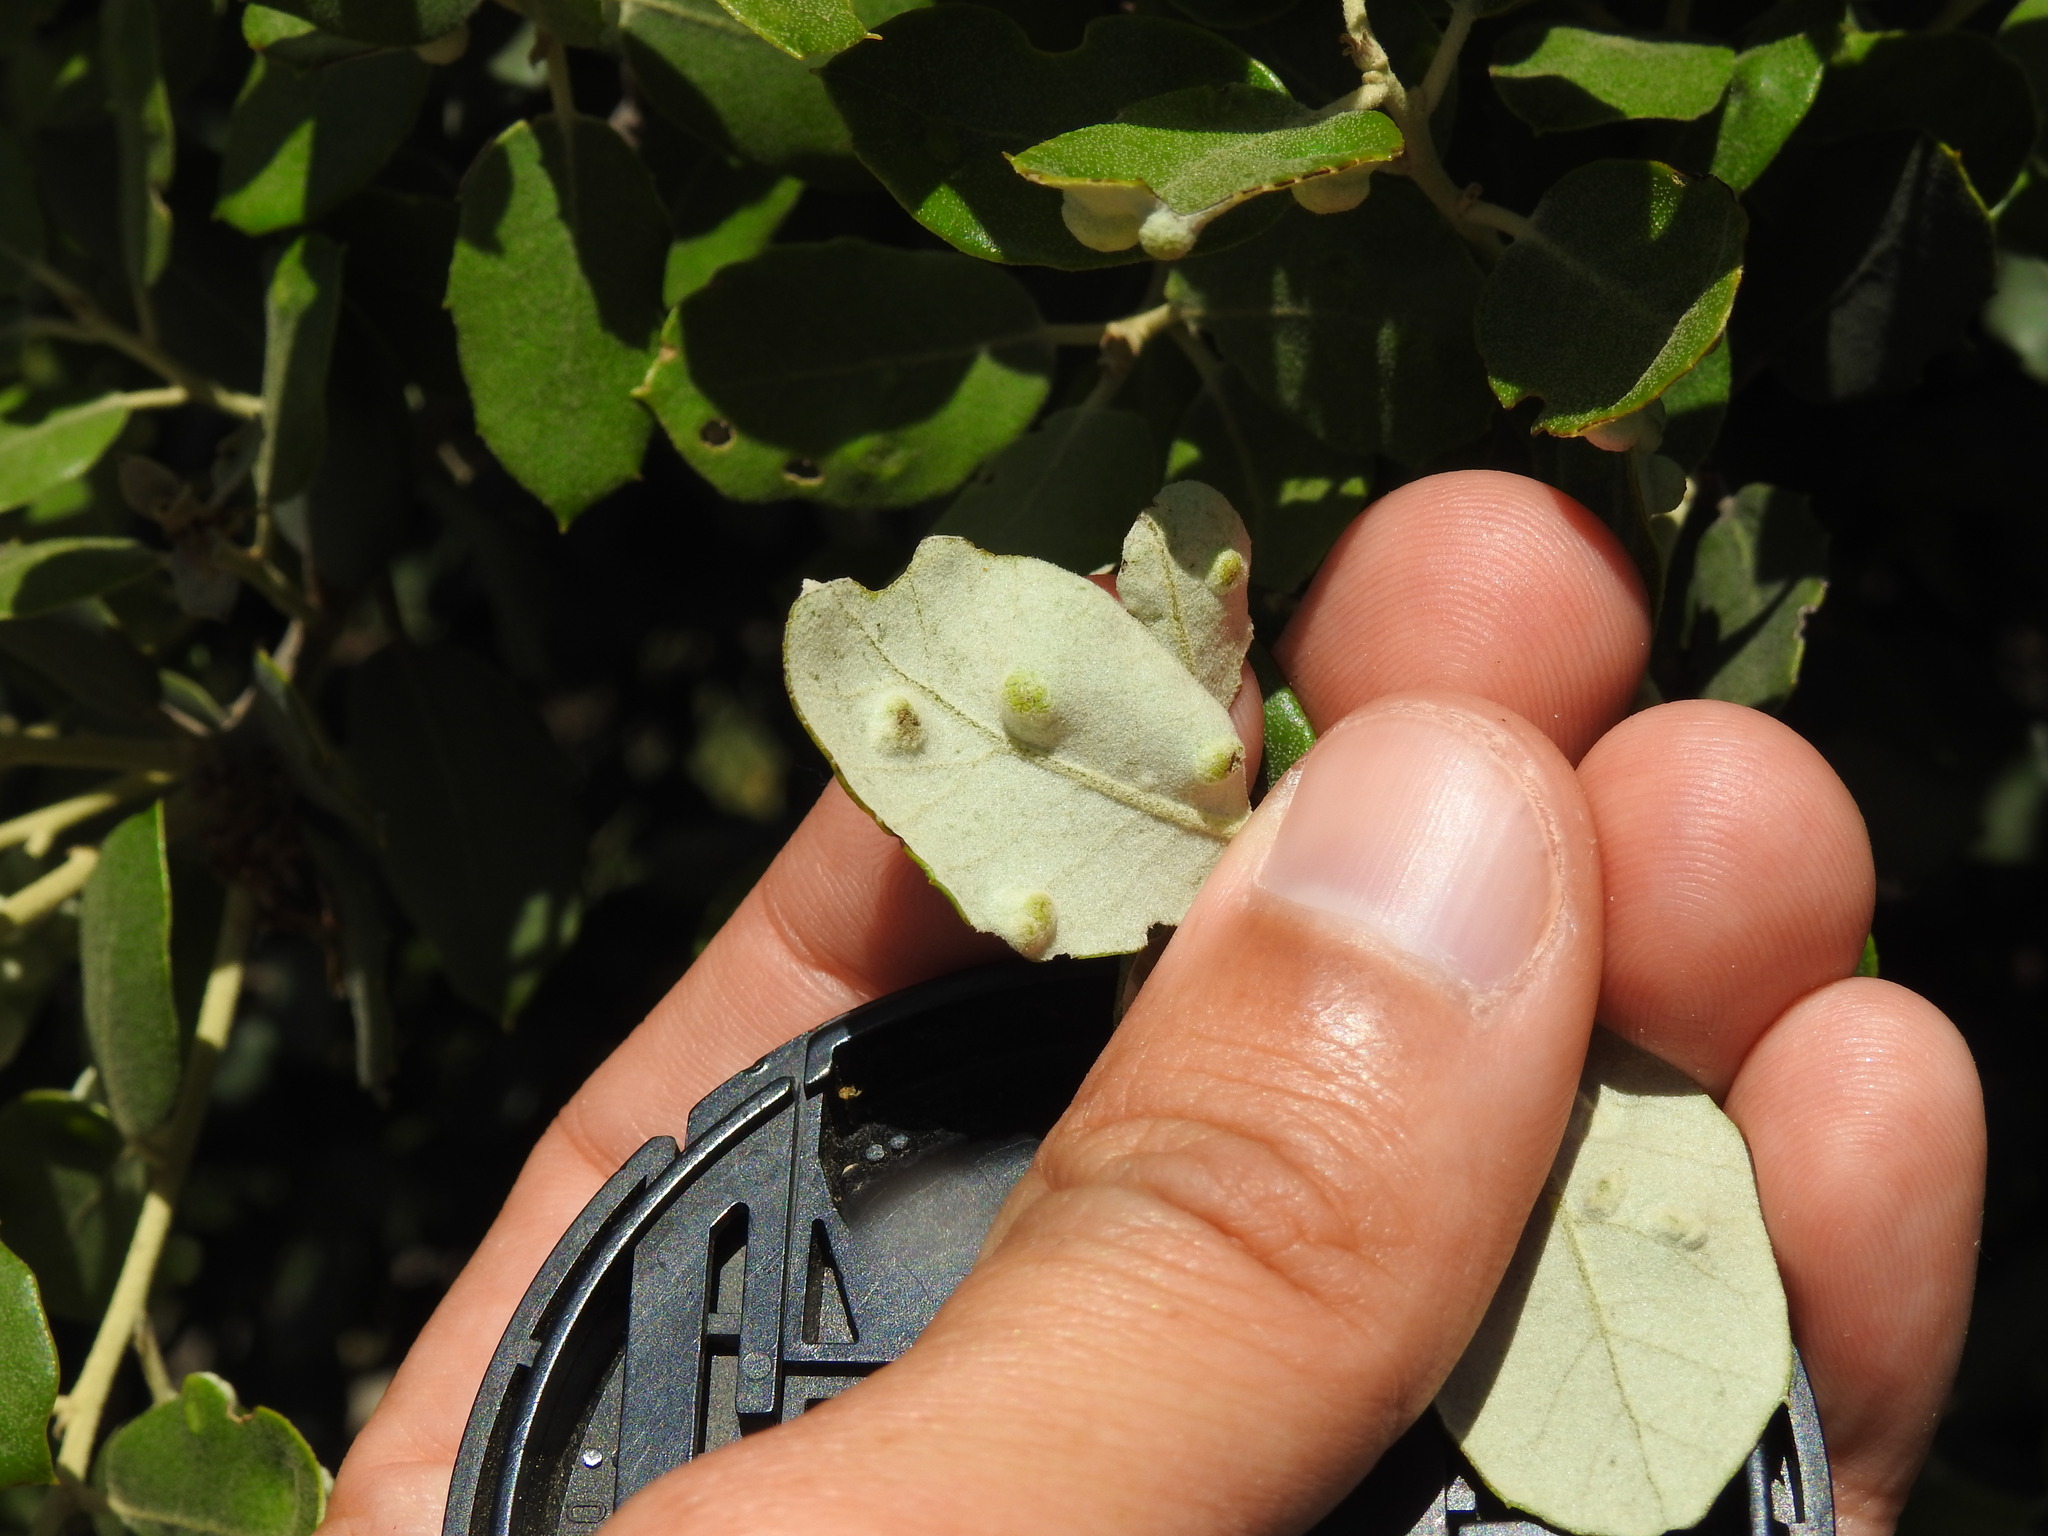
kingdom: Animalia
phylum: Arthropoda
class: Insecta
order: Diptera
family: Cecidomyiidae
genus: Dryomyia
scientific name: Dryomyia lichtensteinii
